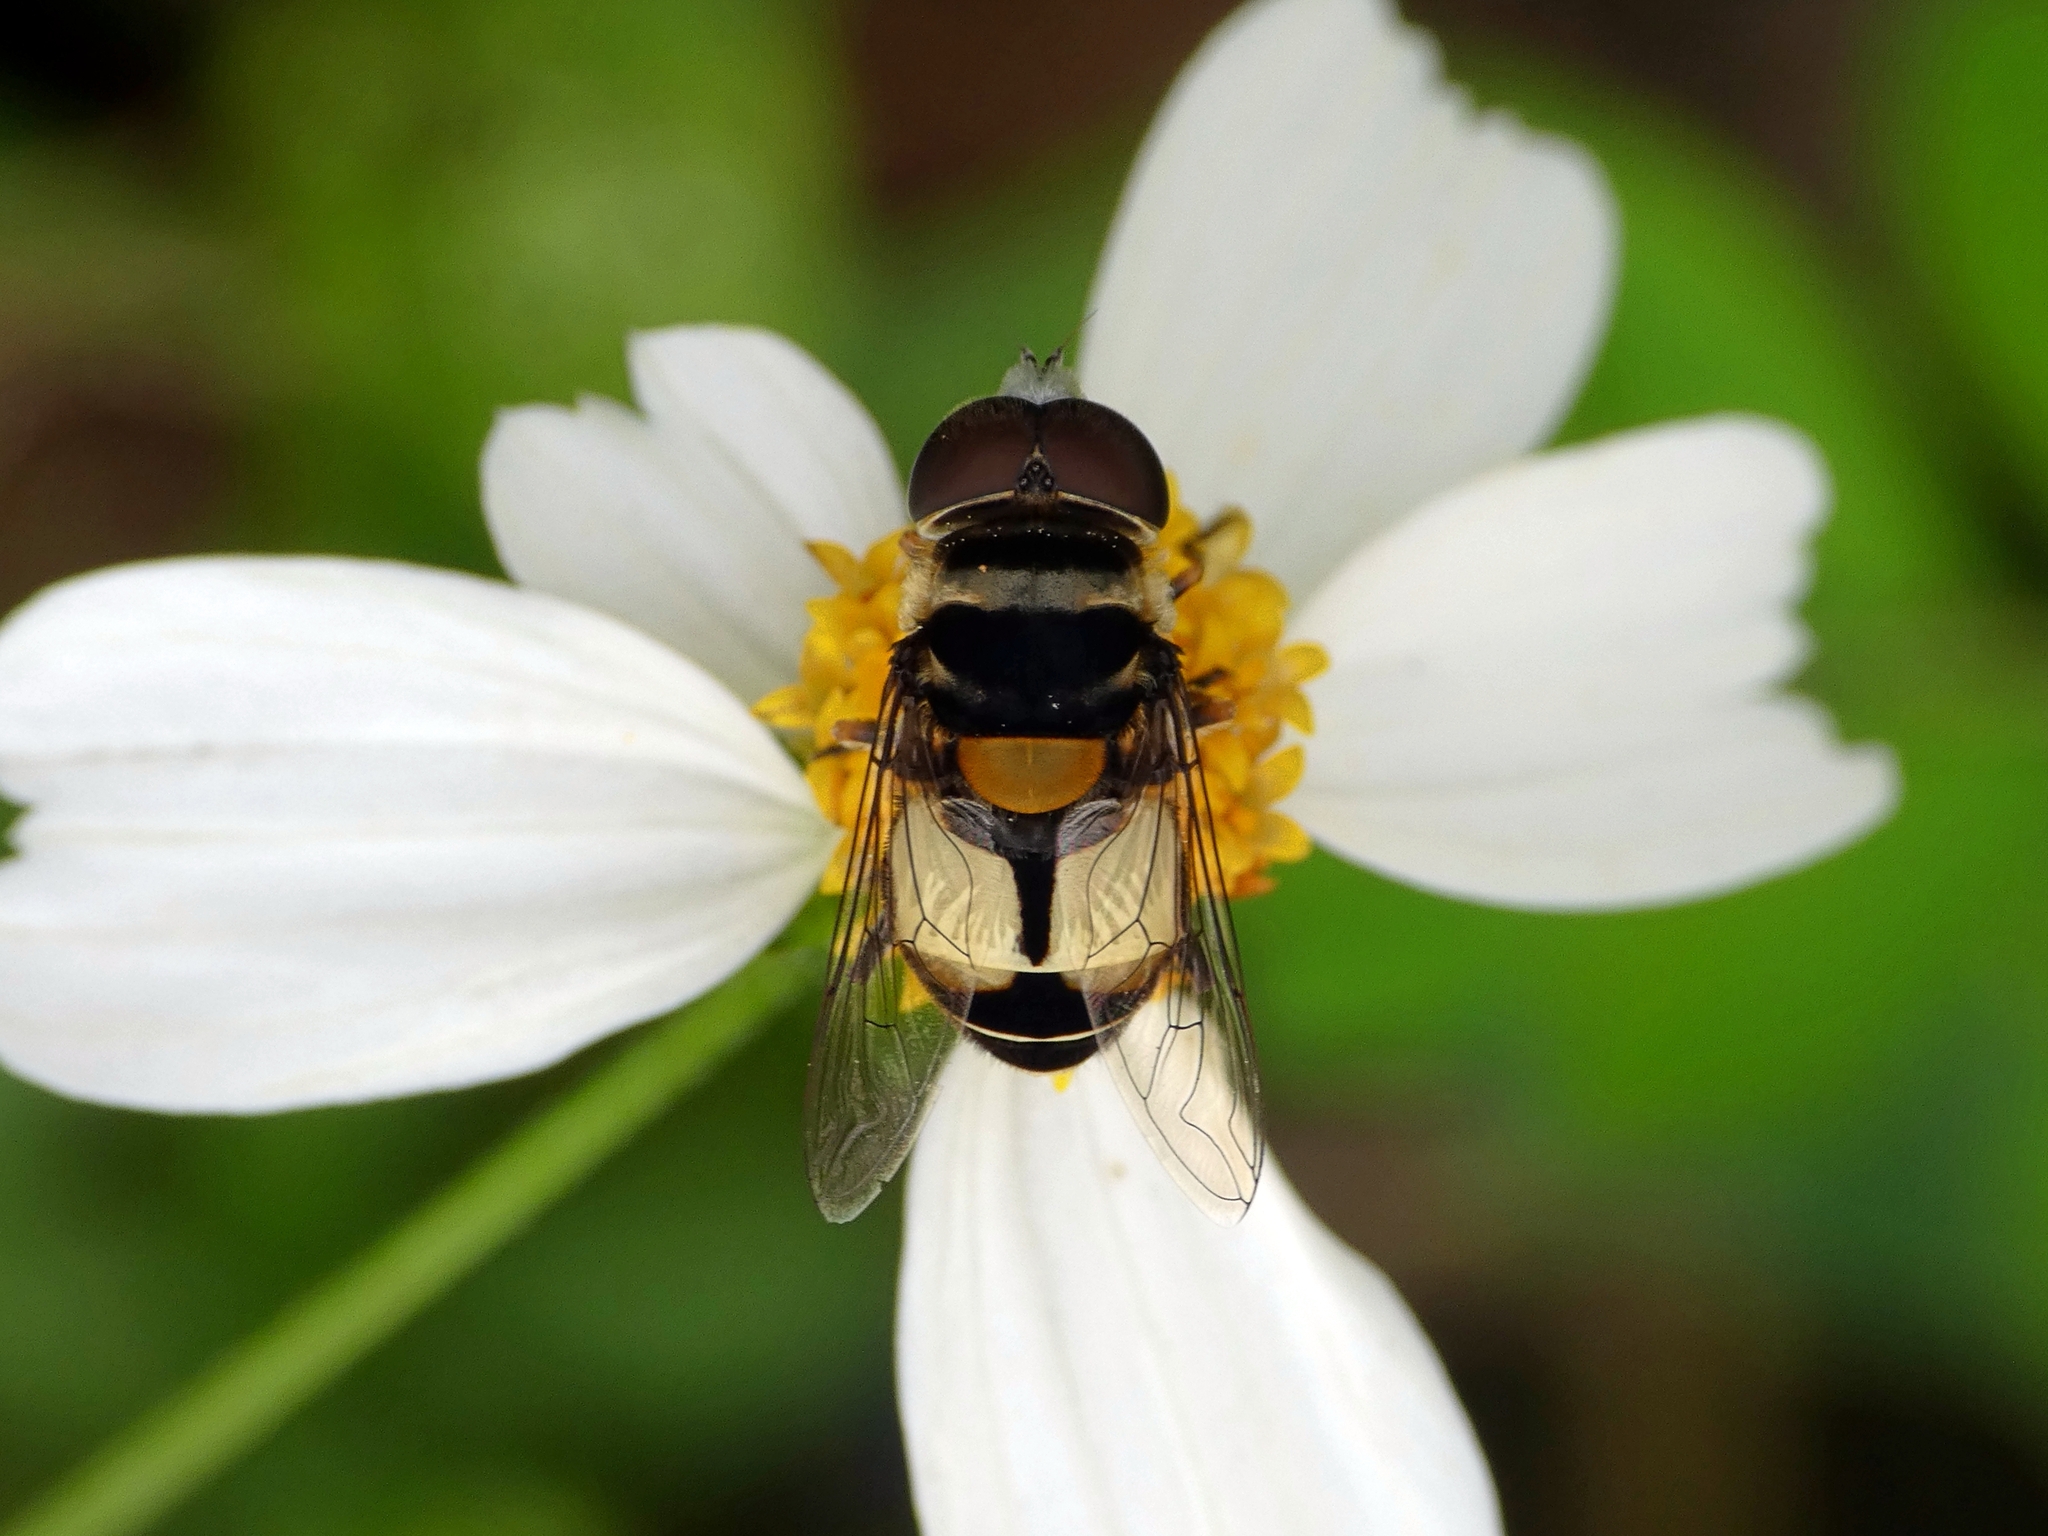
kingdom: Animalia
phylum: Arthropoda
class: Insecta
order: Diptera
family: Syrphidae
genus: Palpada
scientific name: Palpada albifrons
